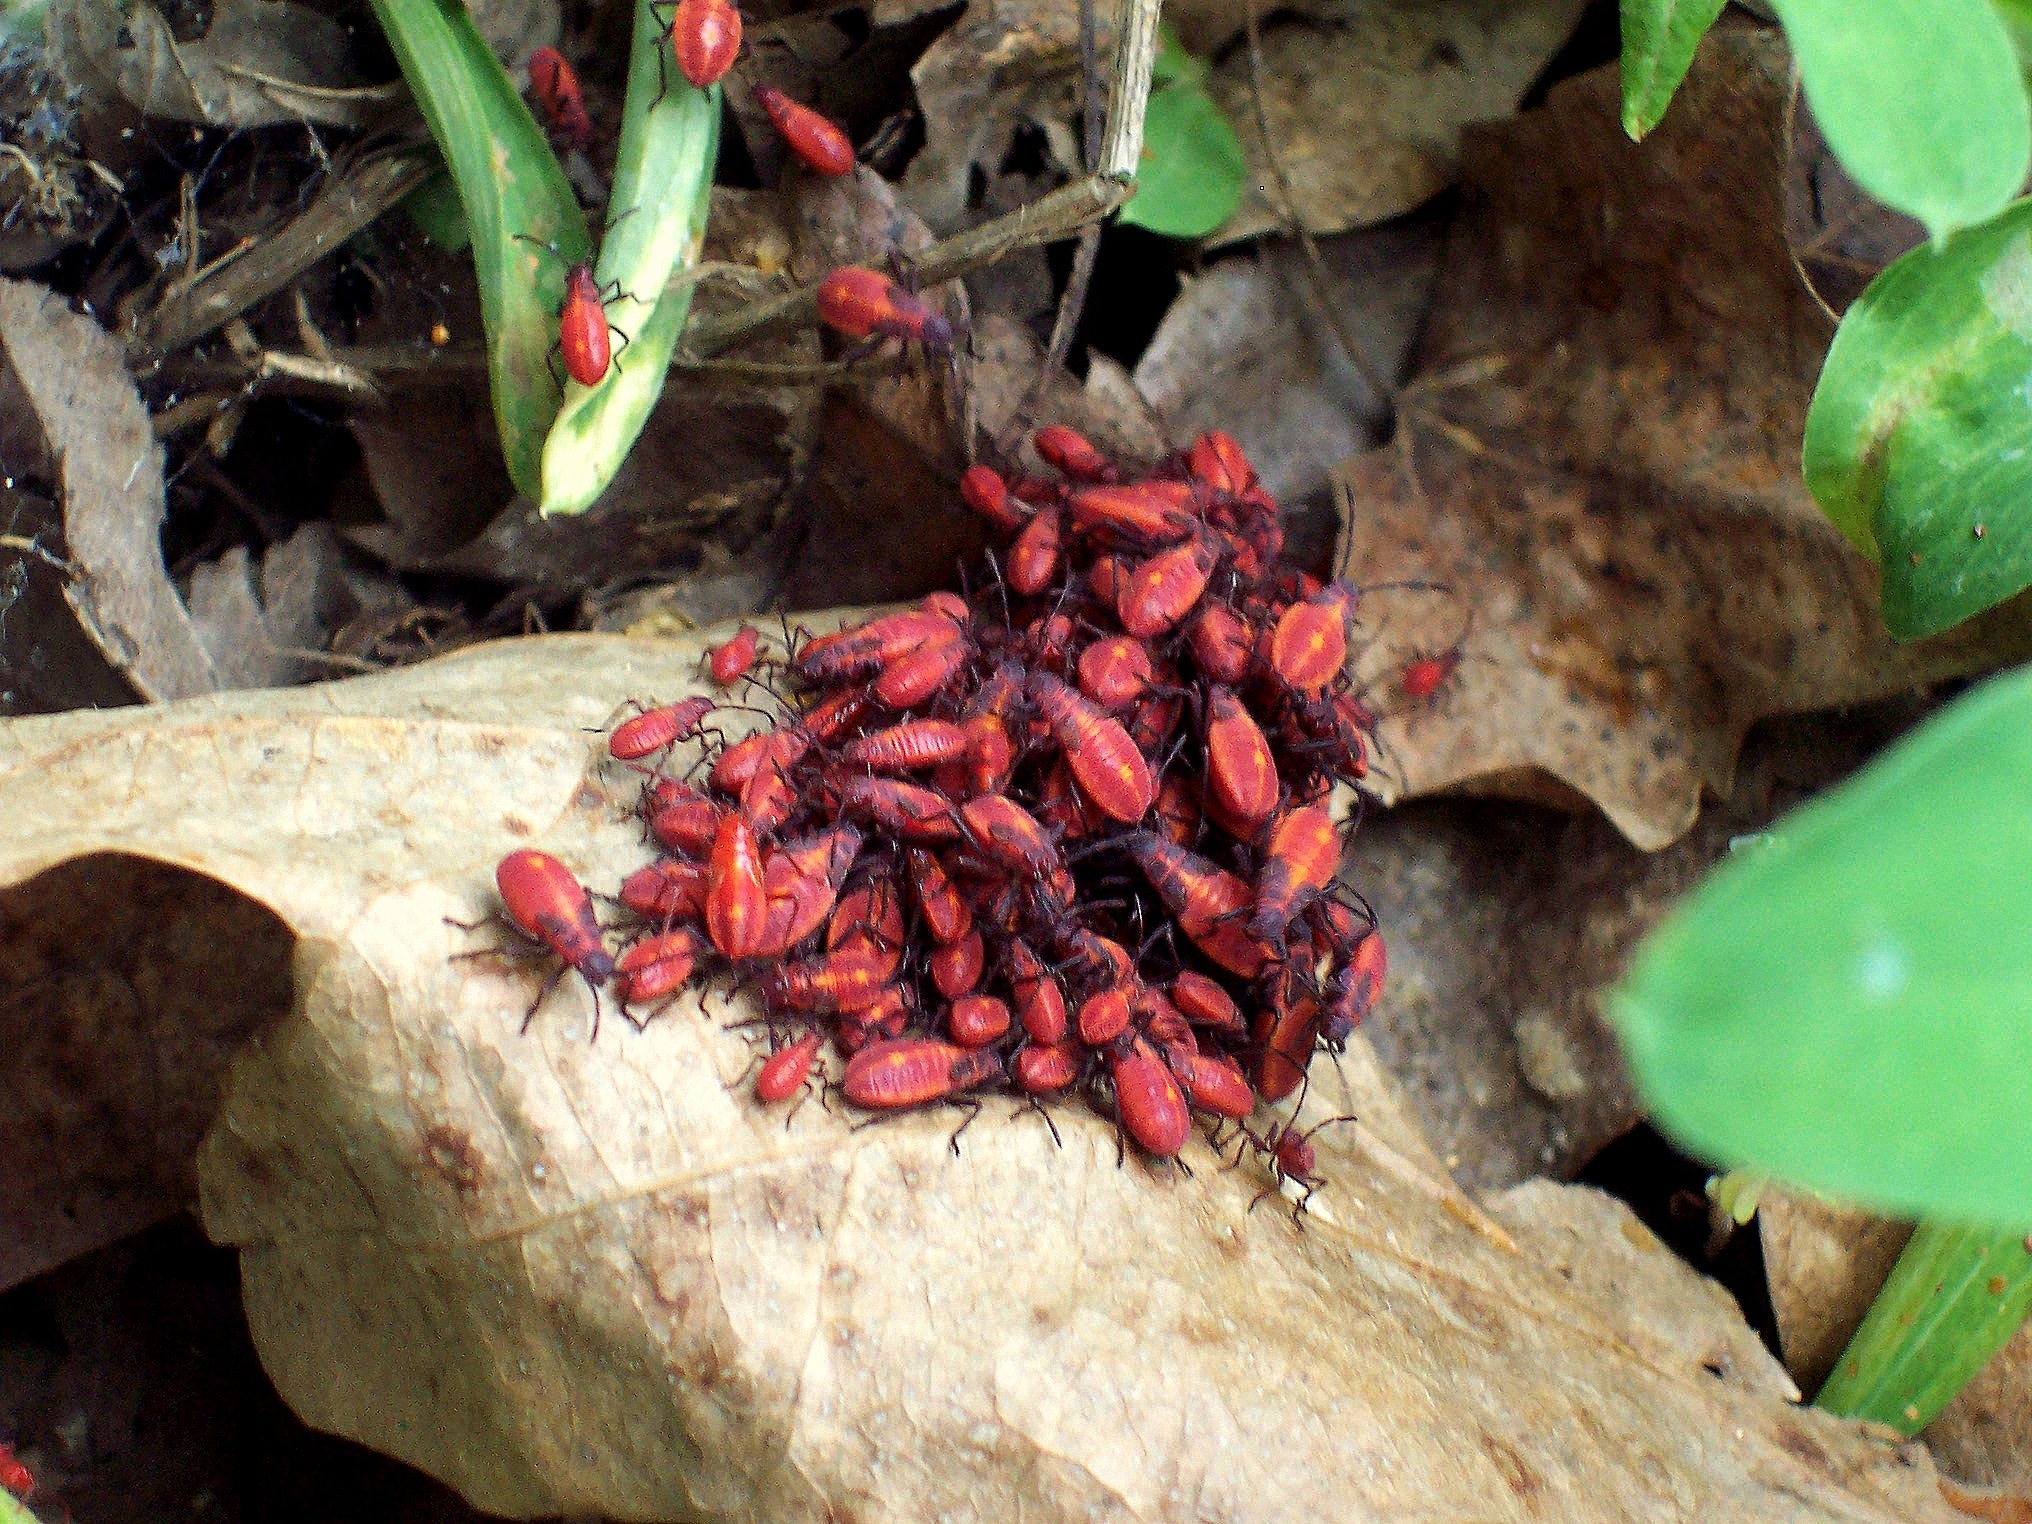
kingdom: Animalia
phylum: Arthropoda
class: Insecta
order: Hemiptera
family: Rhopalidae
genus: Boisea
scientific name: Boisea trivittata
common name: Boxelder bug
